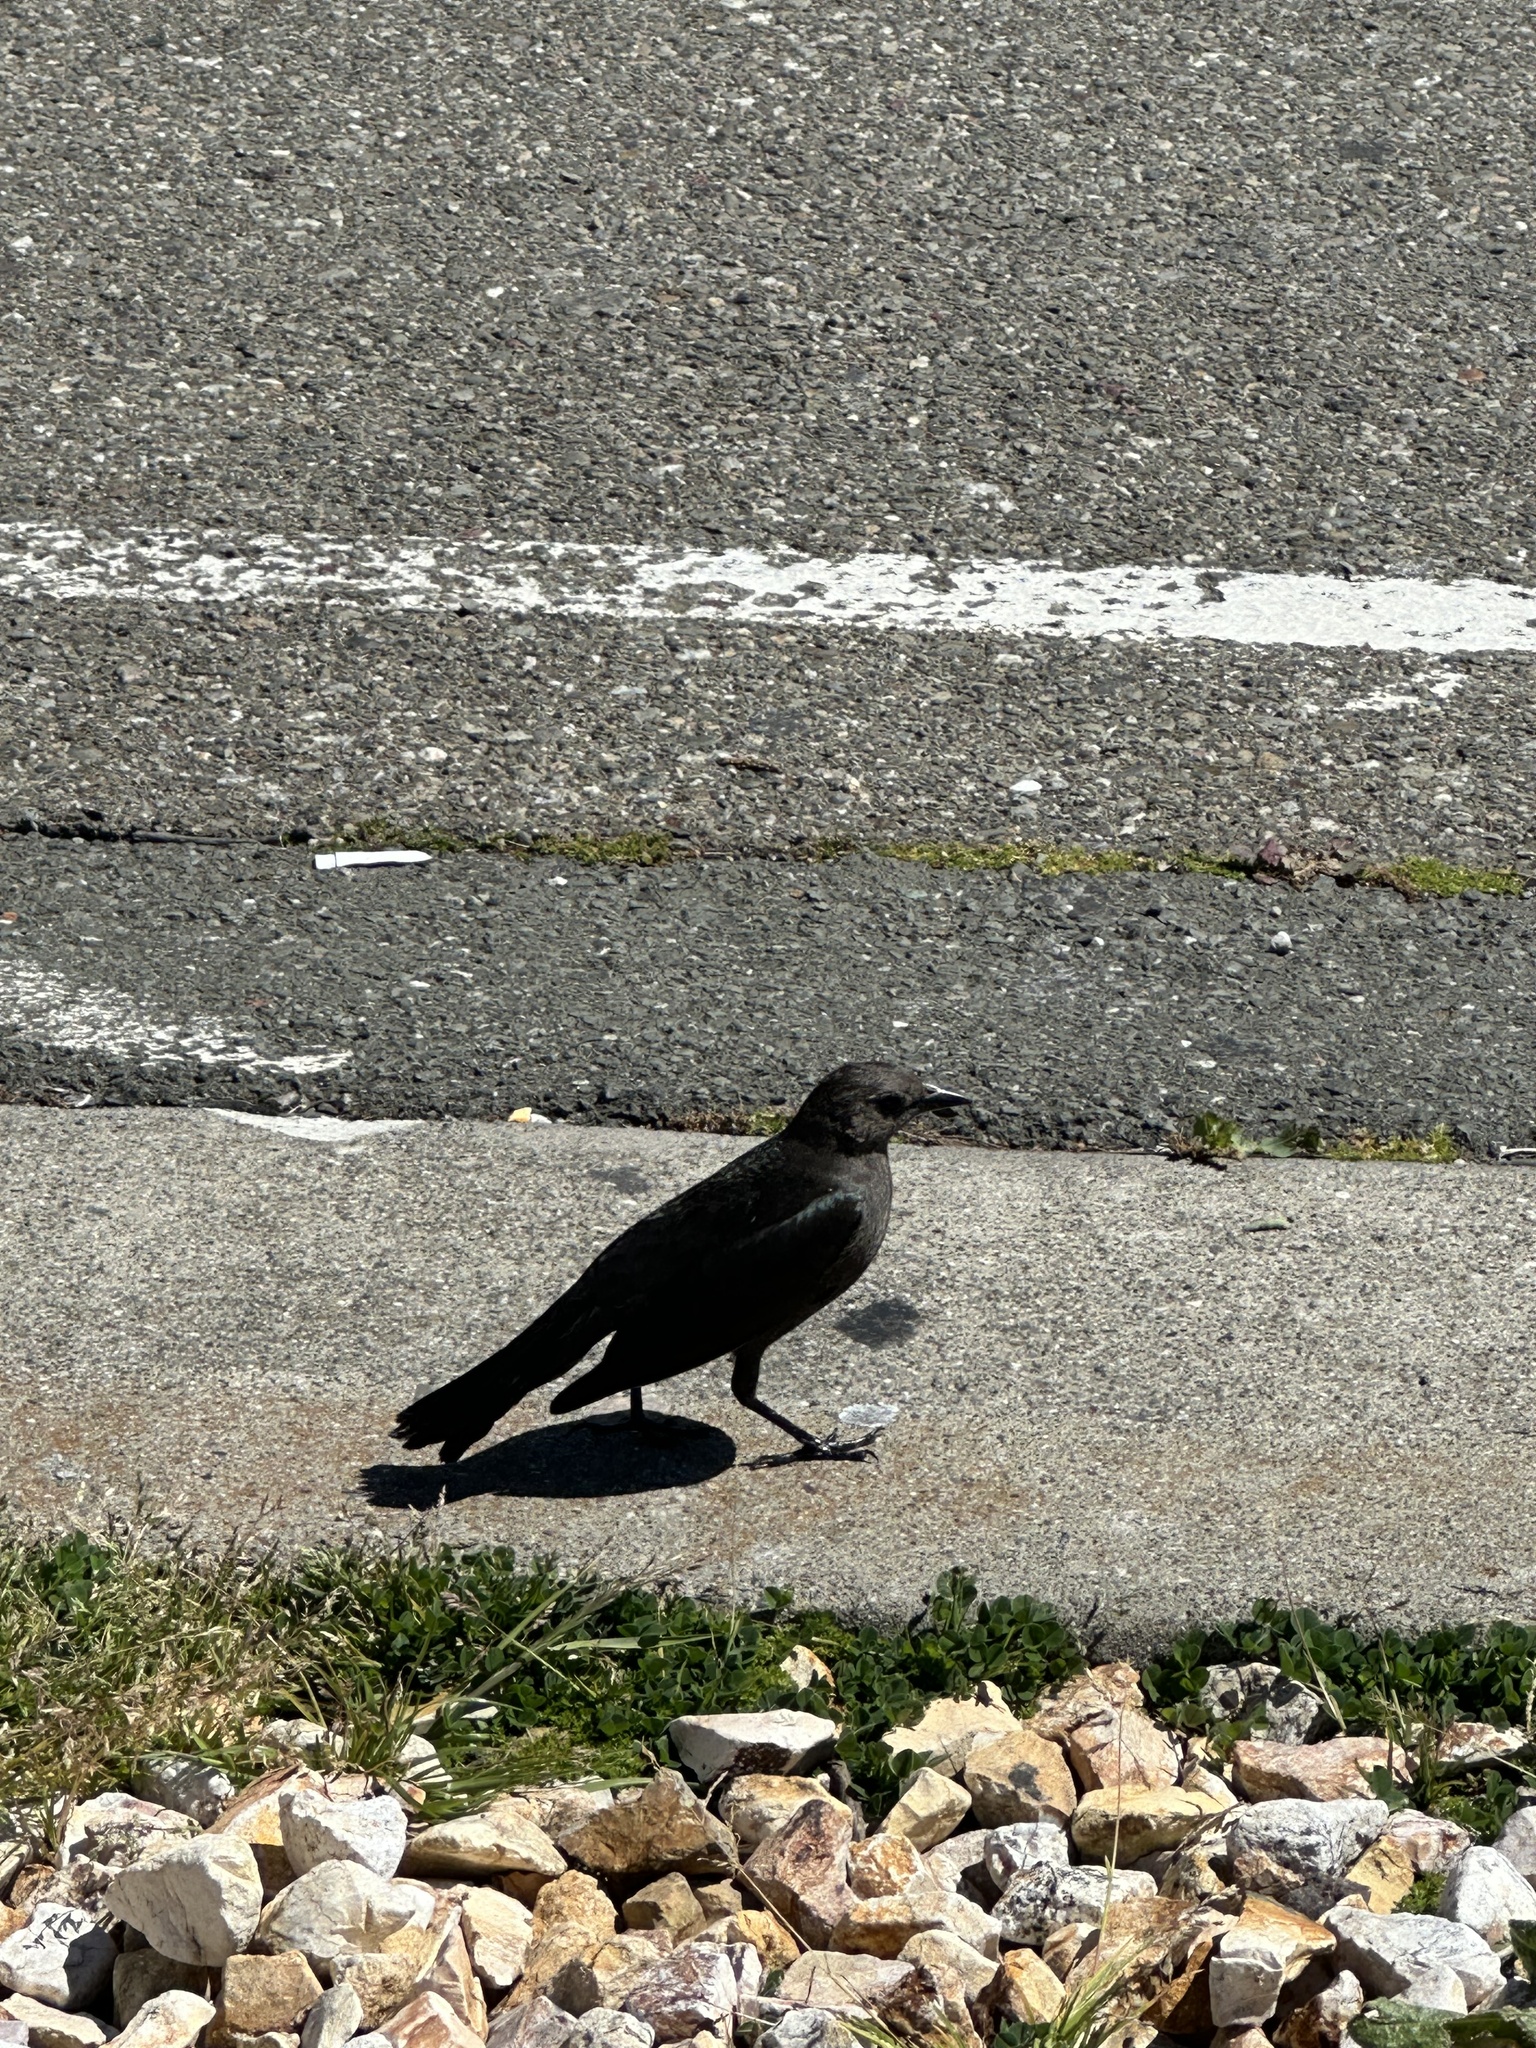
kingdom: Animalia
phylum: Chordata
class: Aves
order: Passeriformes
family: Icteridae
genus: Euphagus
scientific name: Euphagus cyanocephalus
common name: Brewer's blackbird
